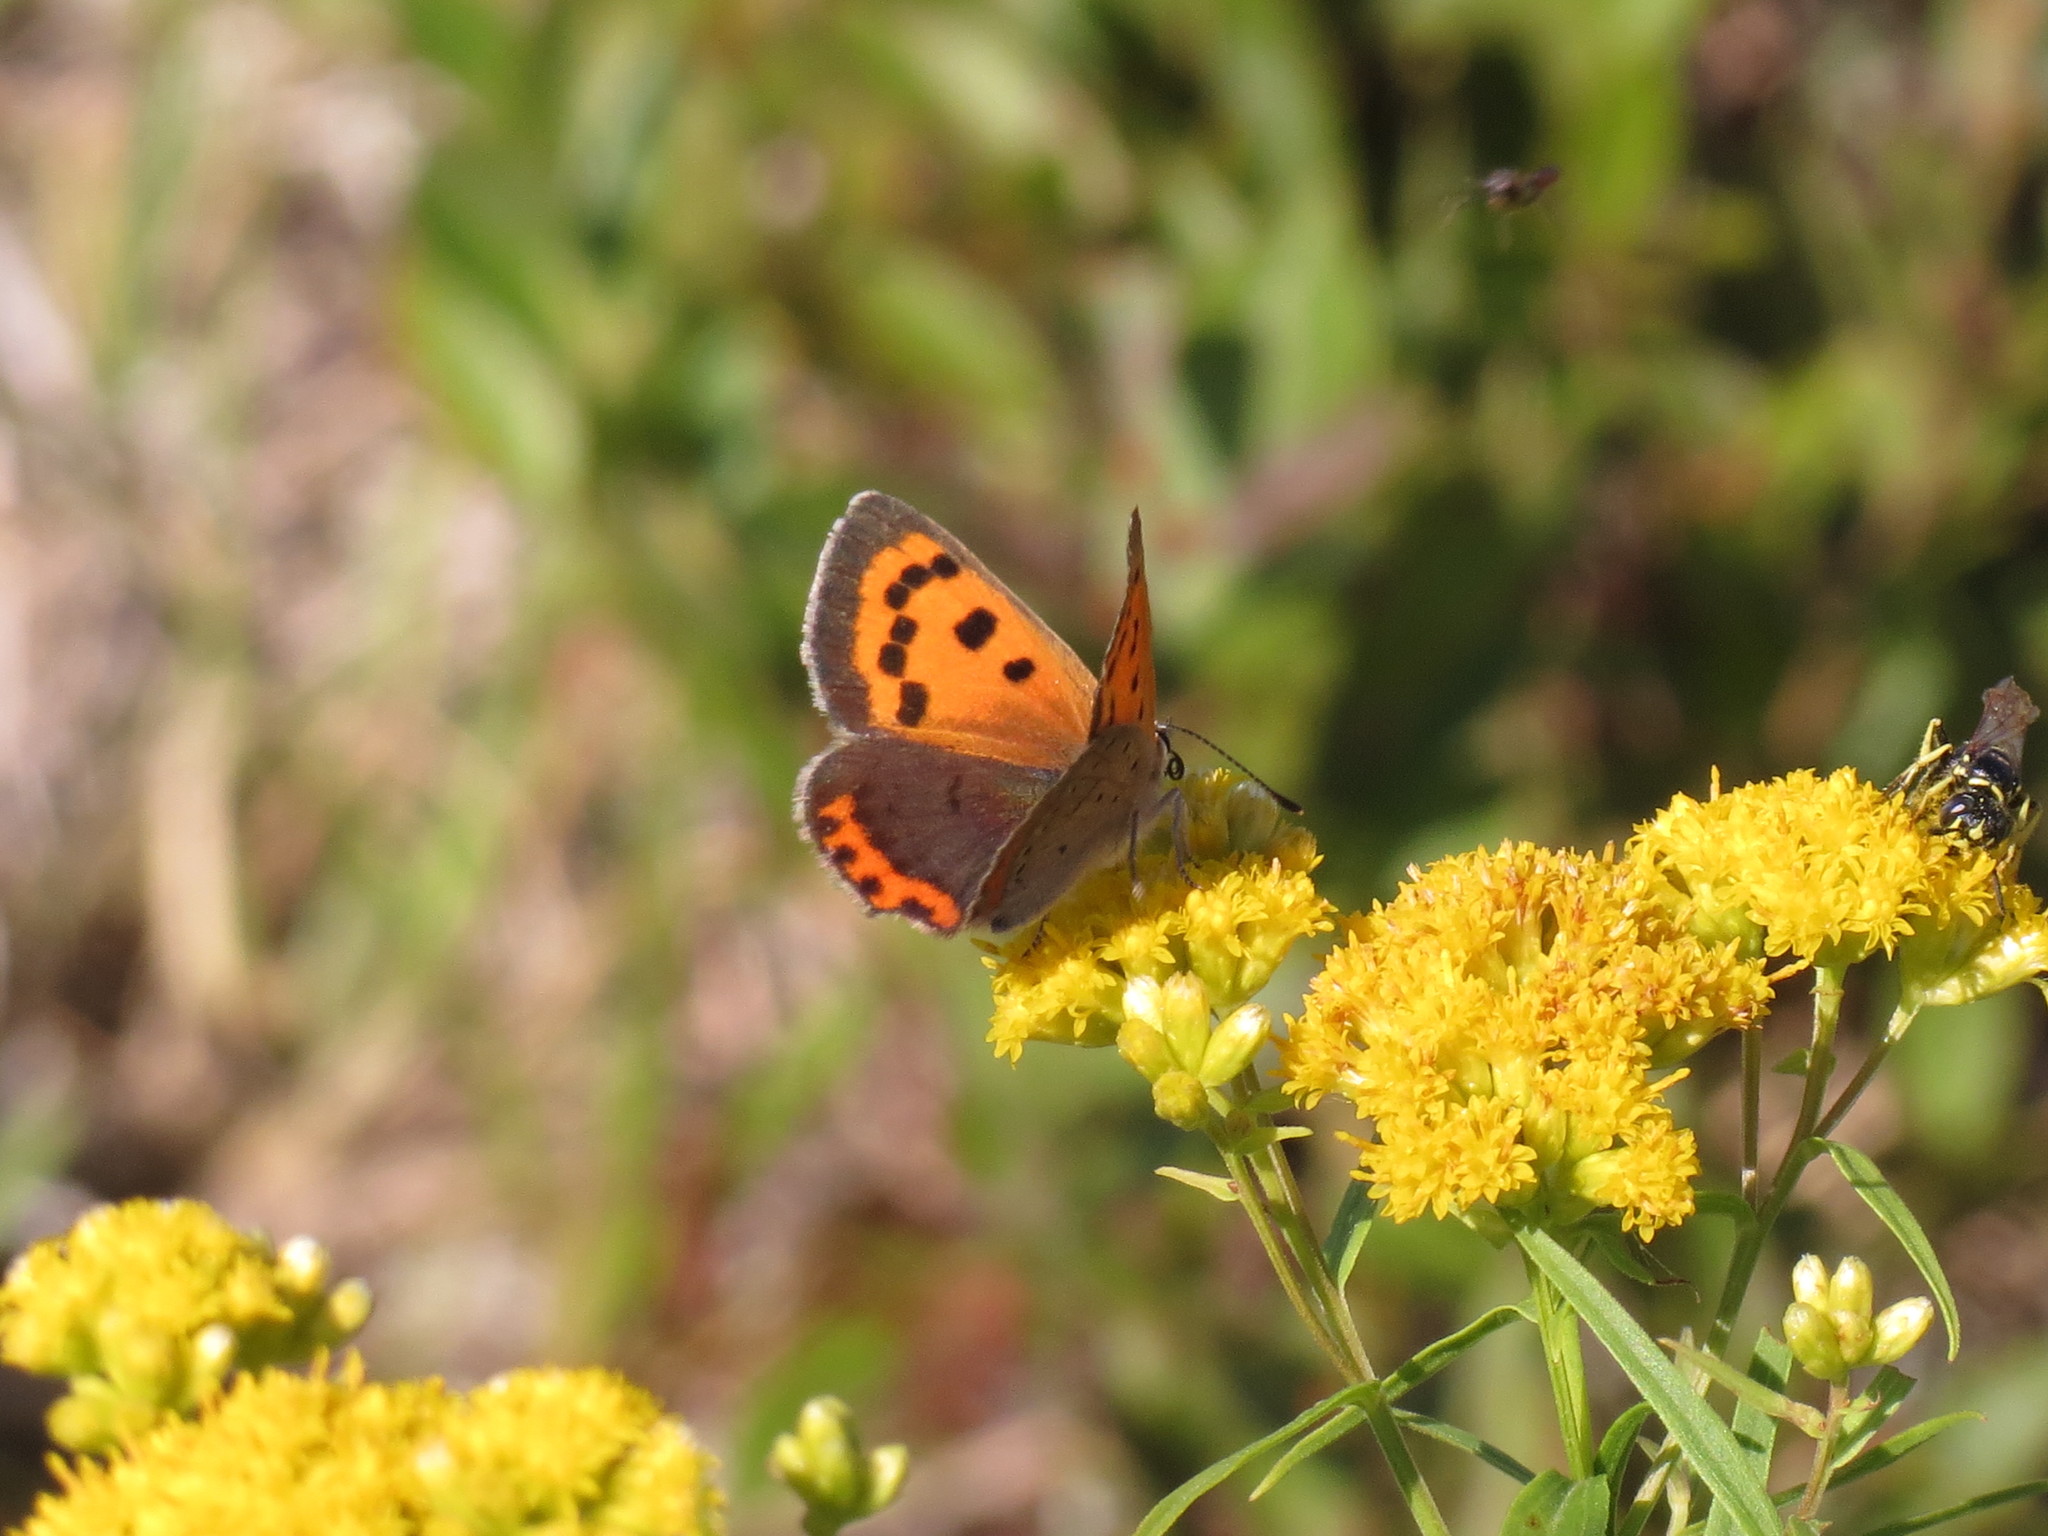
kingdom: Animalia
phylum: Arthropoda
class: Insecta
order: Lepidoptera
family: Lycaenidae
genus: Lycaena
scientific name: Lycaena hypophlaeas
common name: American copper
